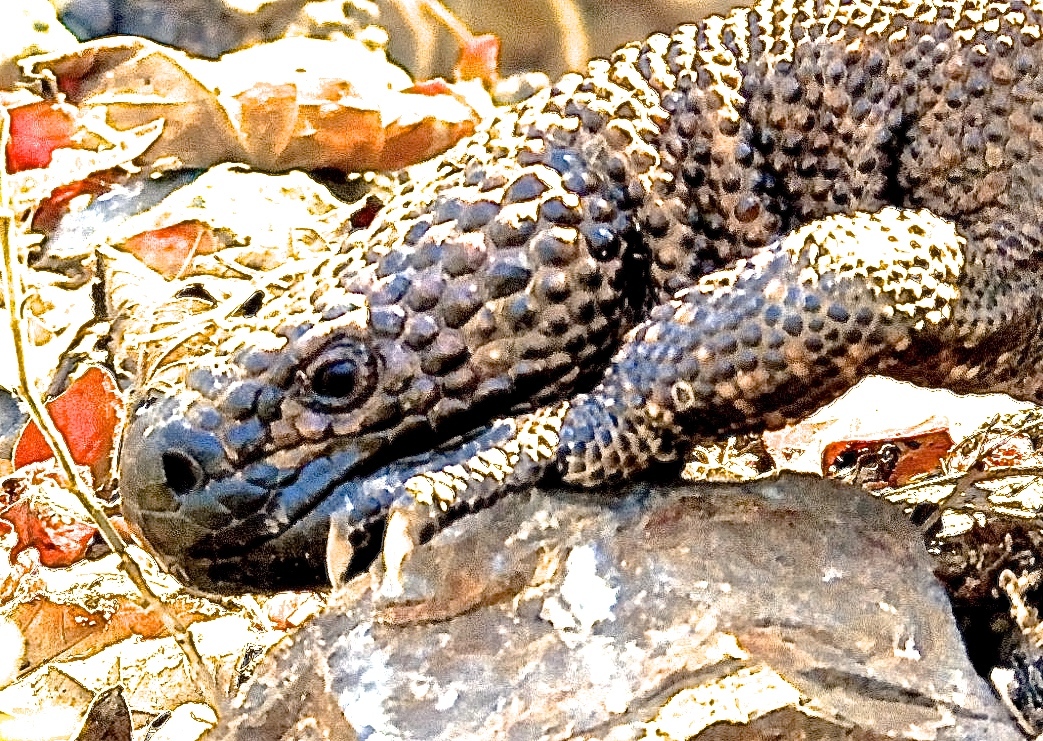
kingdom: Animalia
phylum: Chordata
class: Squamata
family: Helodermatidae
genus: Heloderma
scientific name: Heloderma horridum
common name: Mexican beaded lizard
